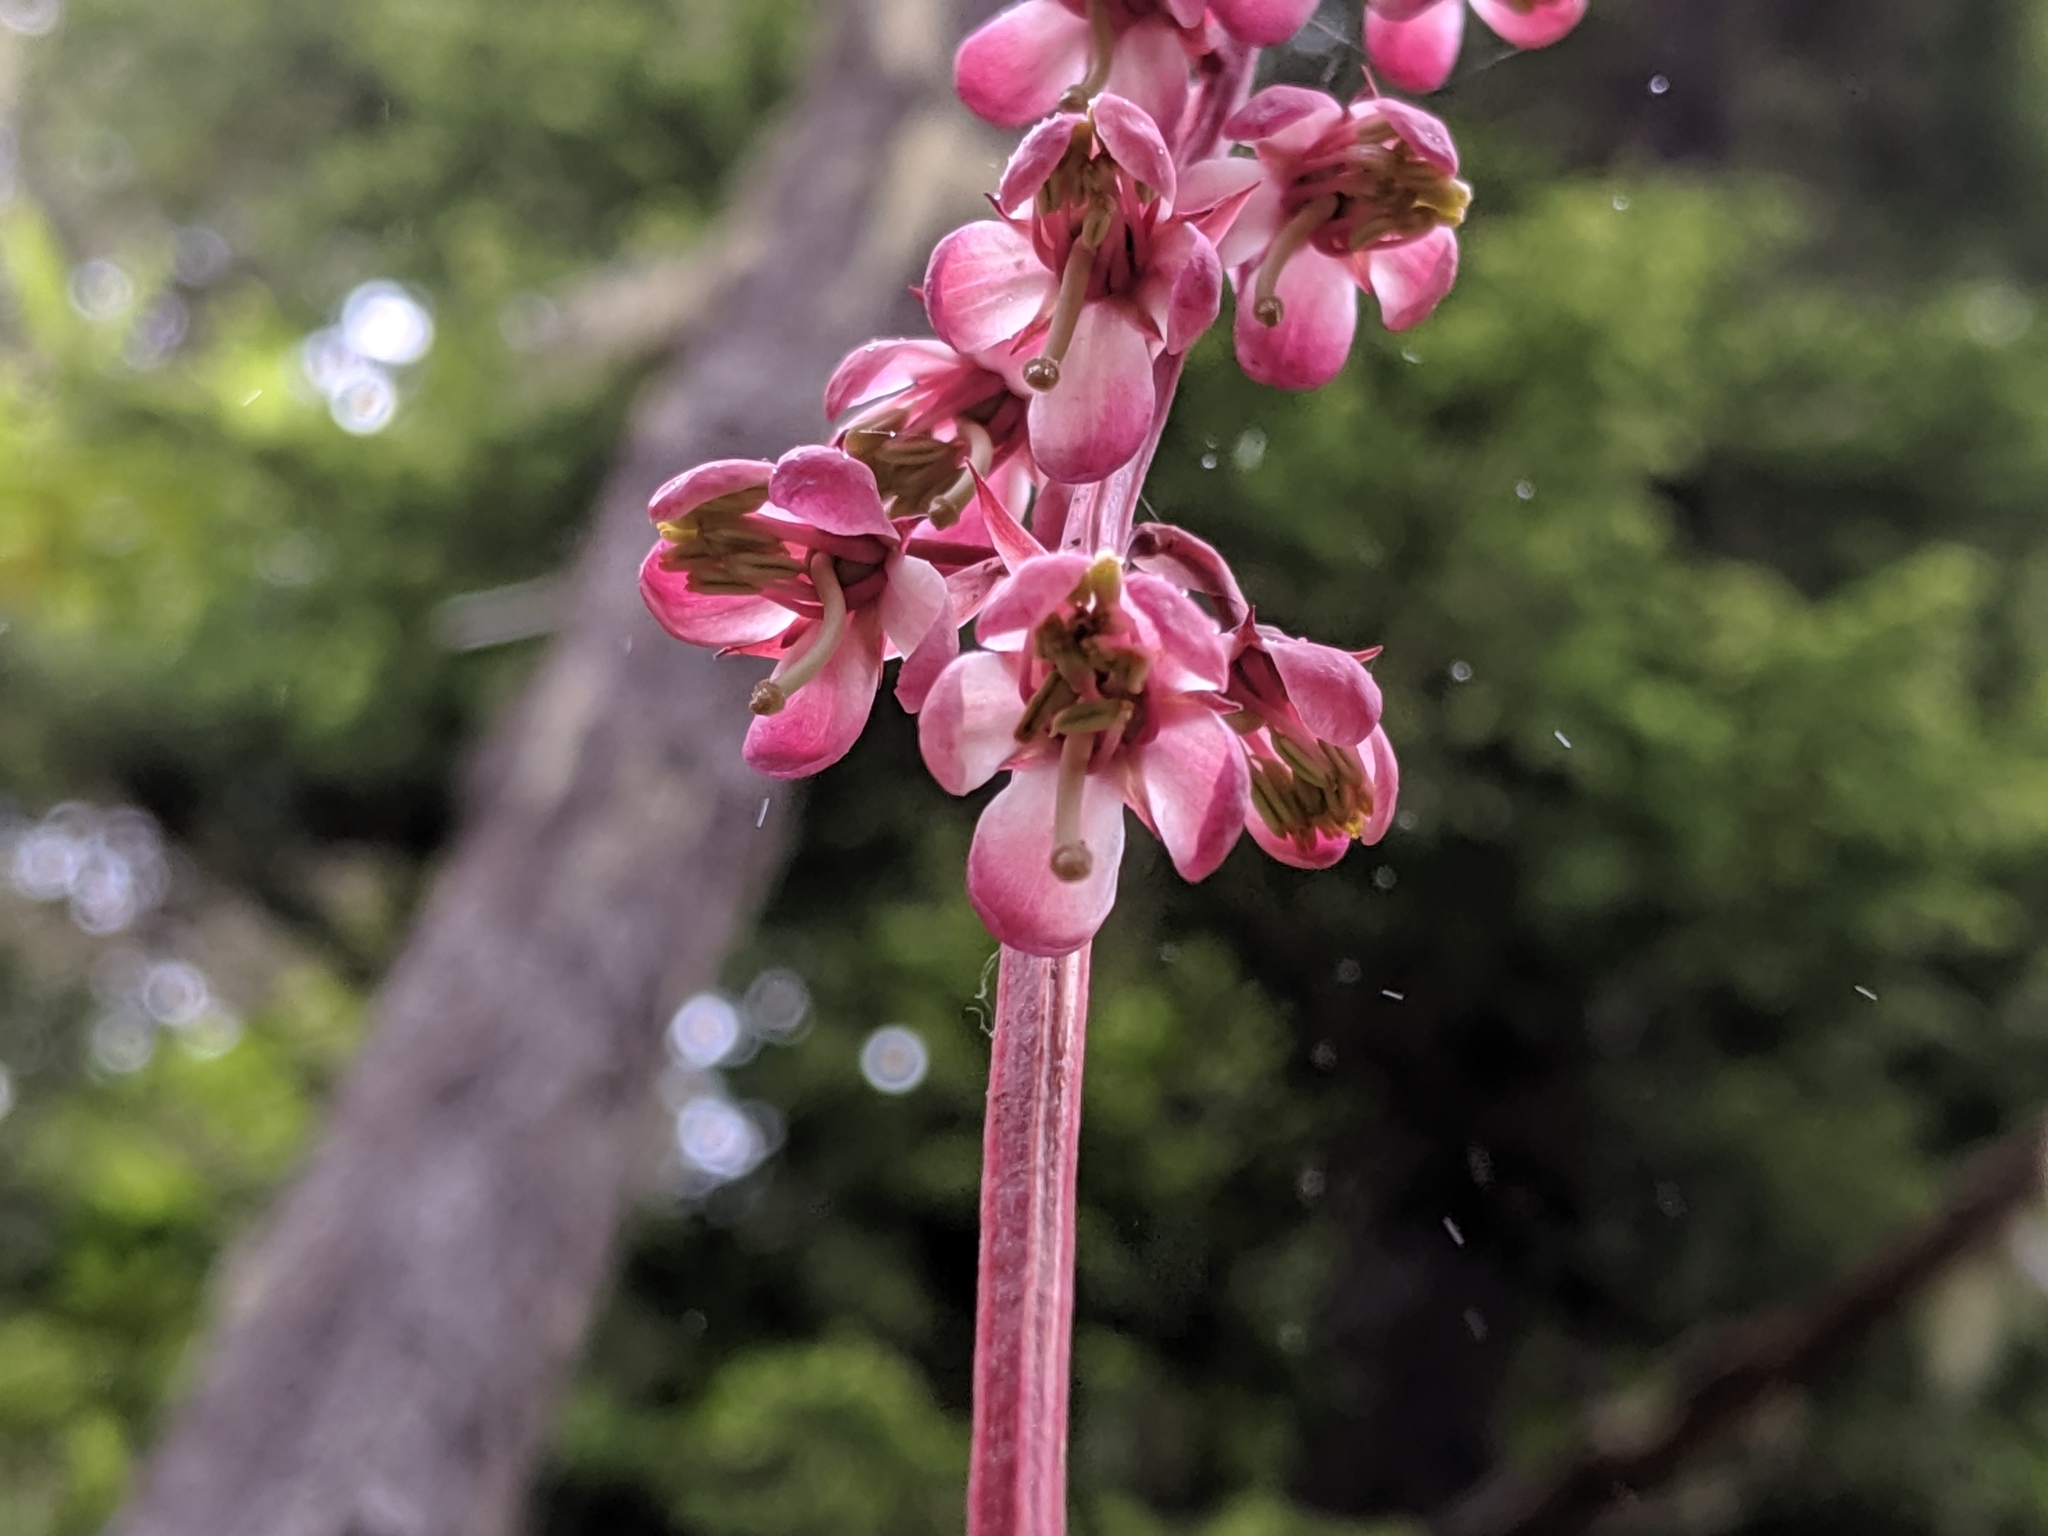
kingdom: Plantae
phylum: Tracheophyta
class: Magnoliopsida
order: Ericales
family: Ericaceae
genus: Pyrola
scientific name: Pyrola asarifolia
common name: Bog wintergreen
